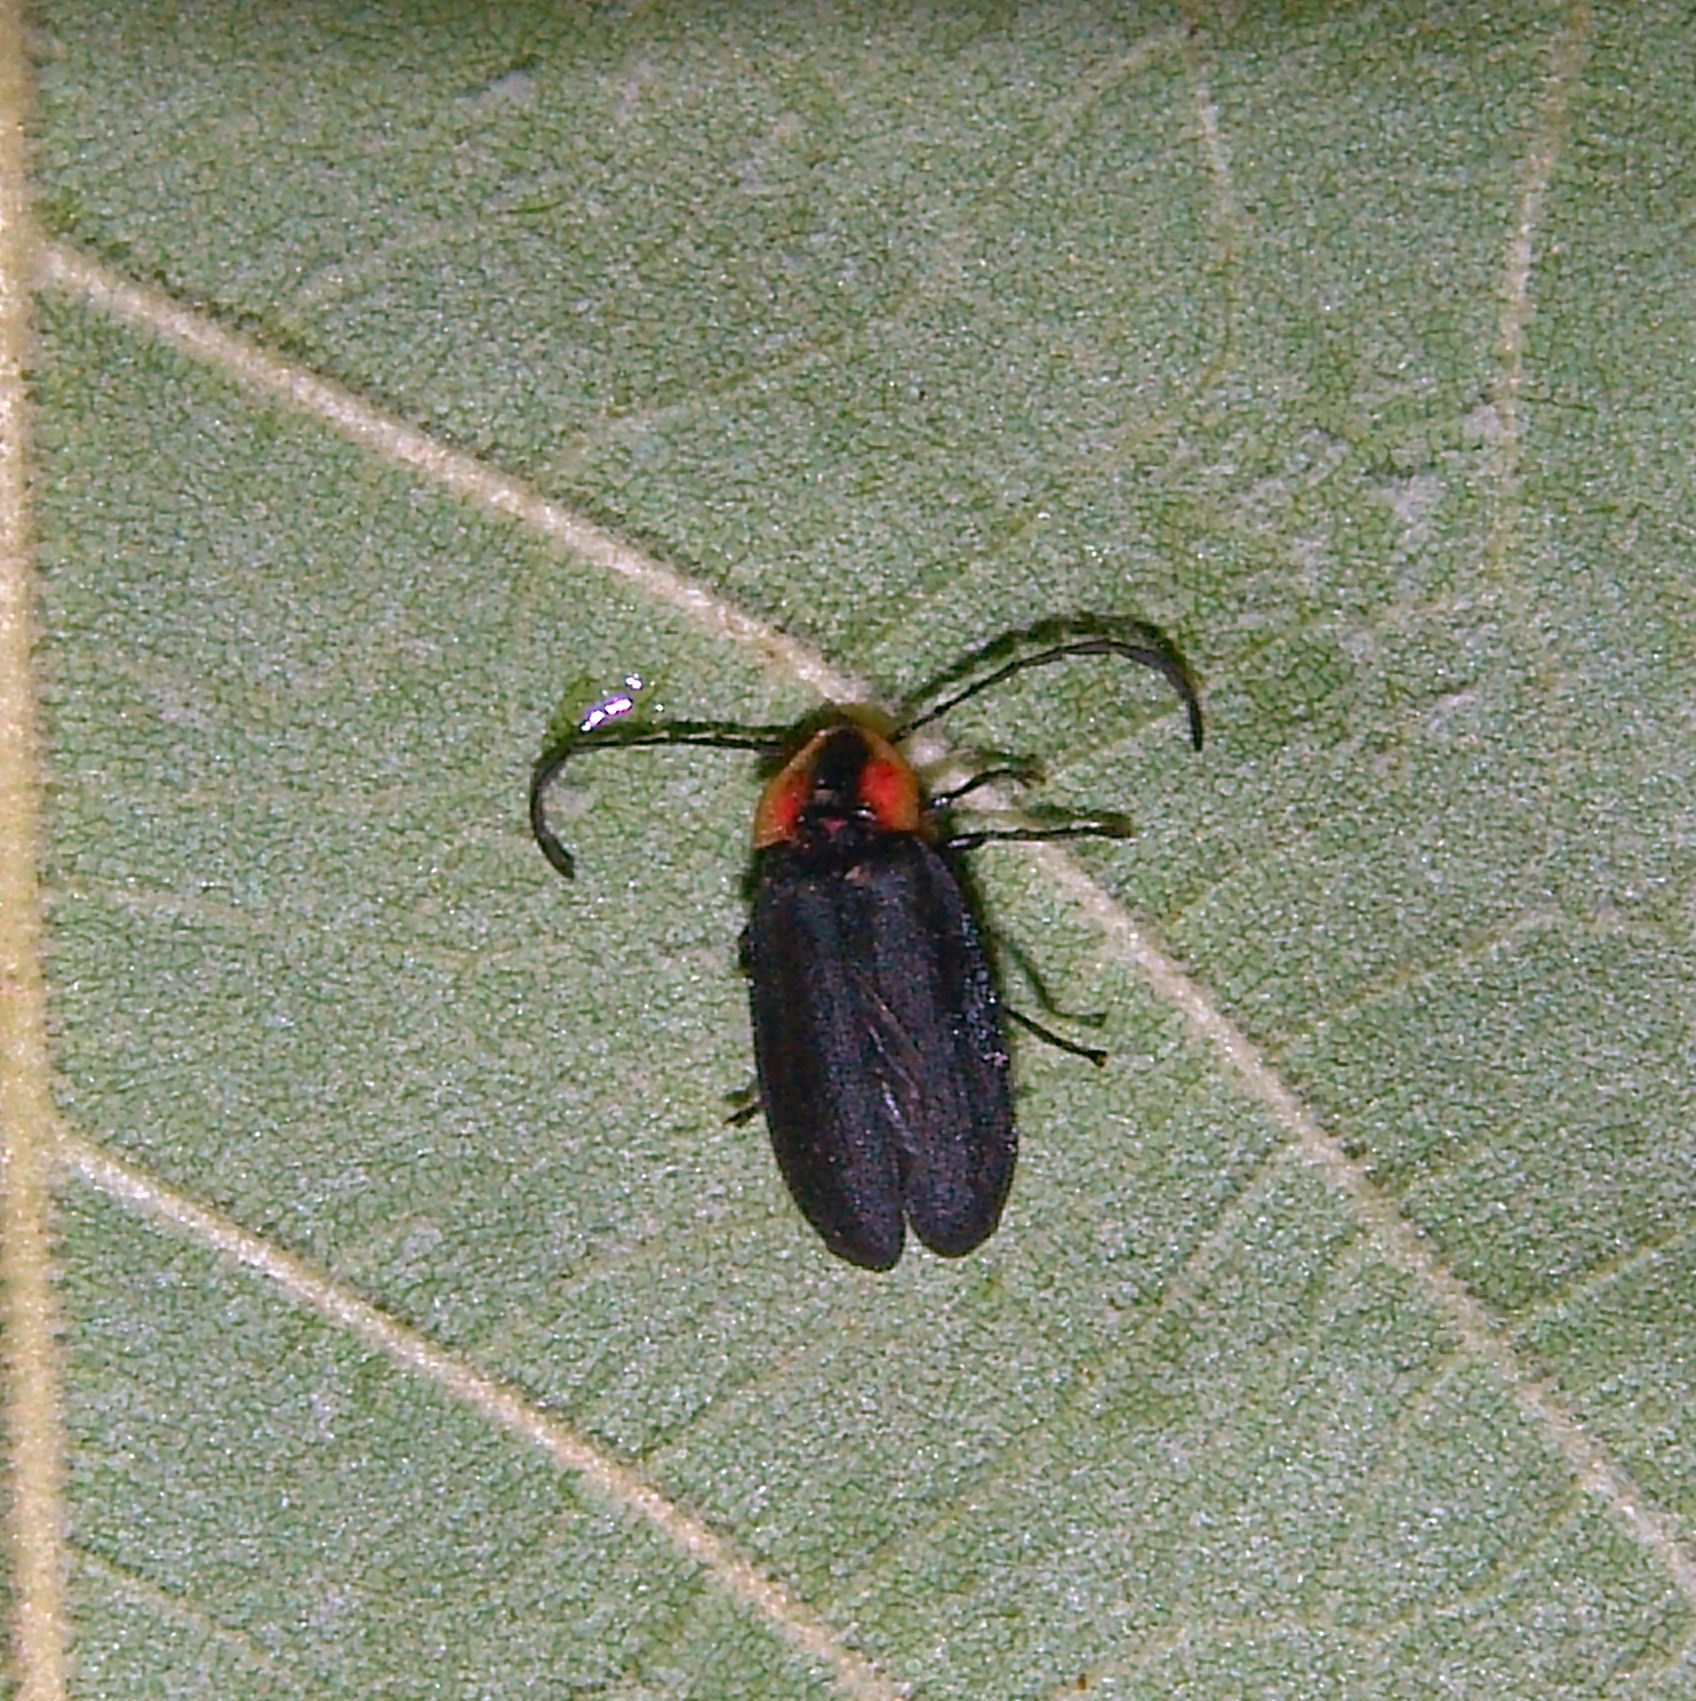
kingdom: Animalia
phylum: Arthropoda
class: Insecta
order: Coleoptera
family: Lampyridae
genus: Lucidota
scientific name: Lucidota atra
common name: Black firefly
